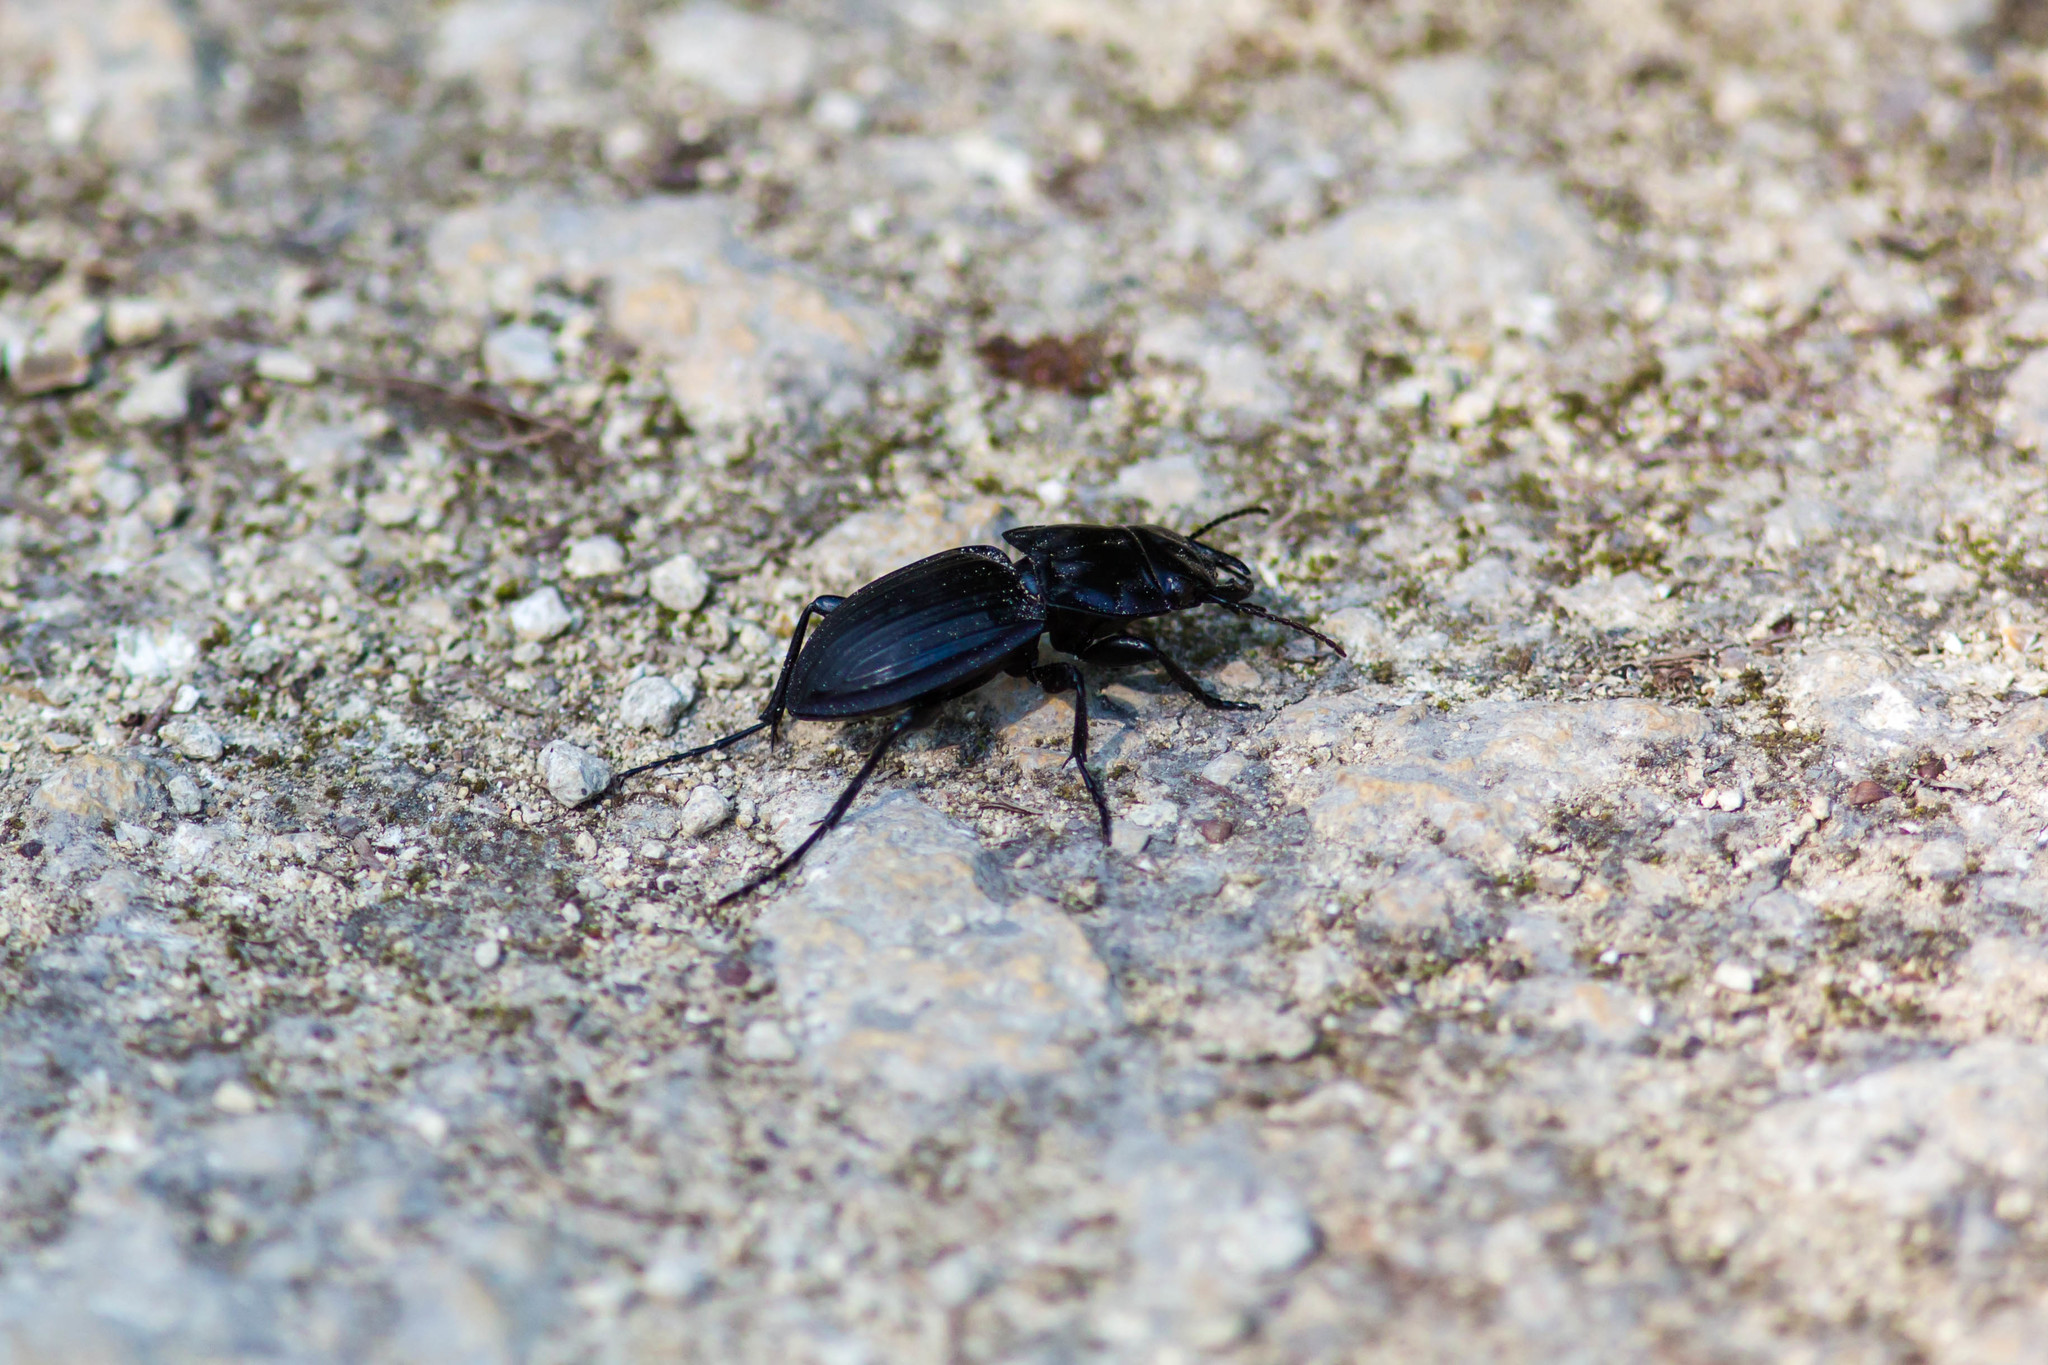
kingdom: Animalia
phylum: Arthropoda
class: Insecta
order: Coleoptera
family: Carabidae
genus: Pasimachus
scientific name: Pasimachus marginatus
